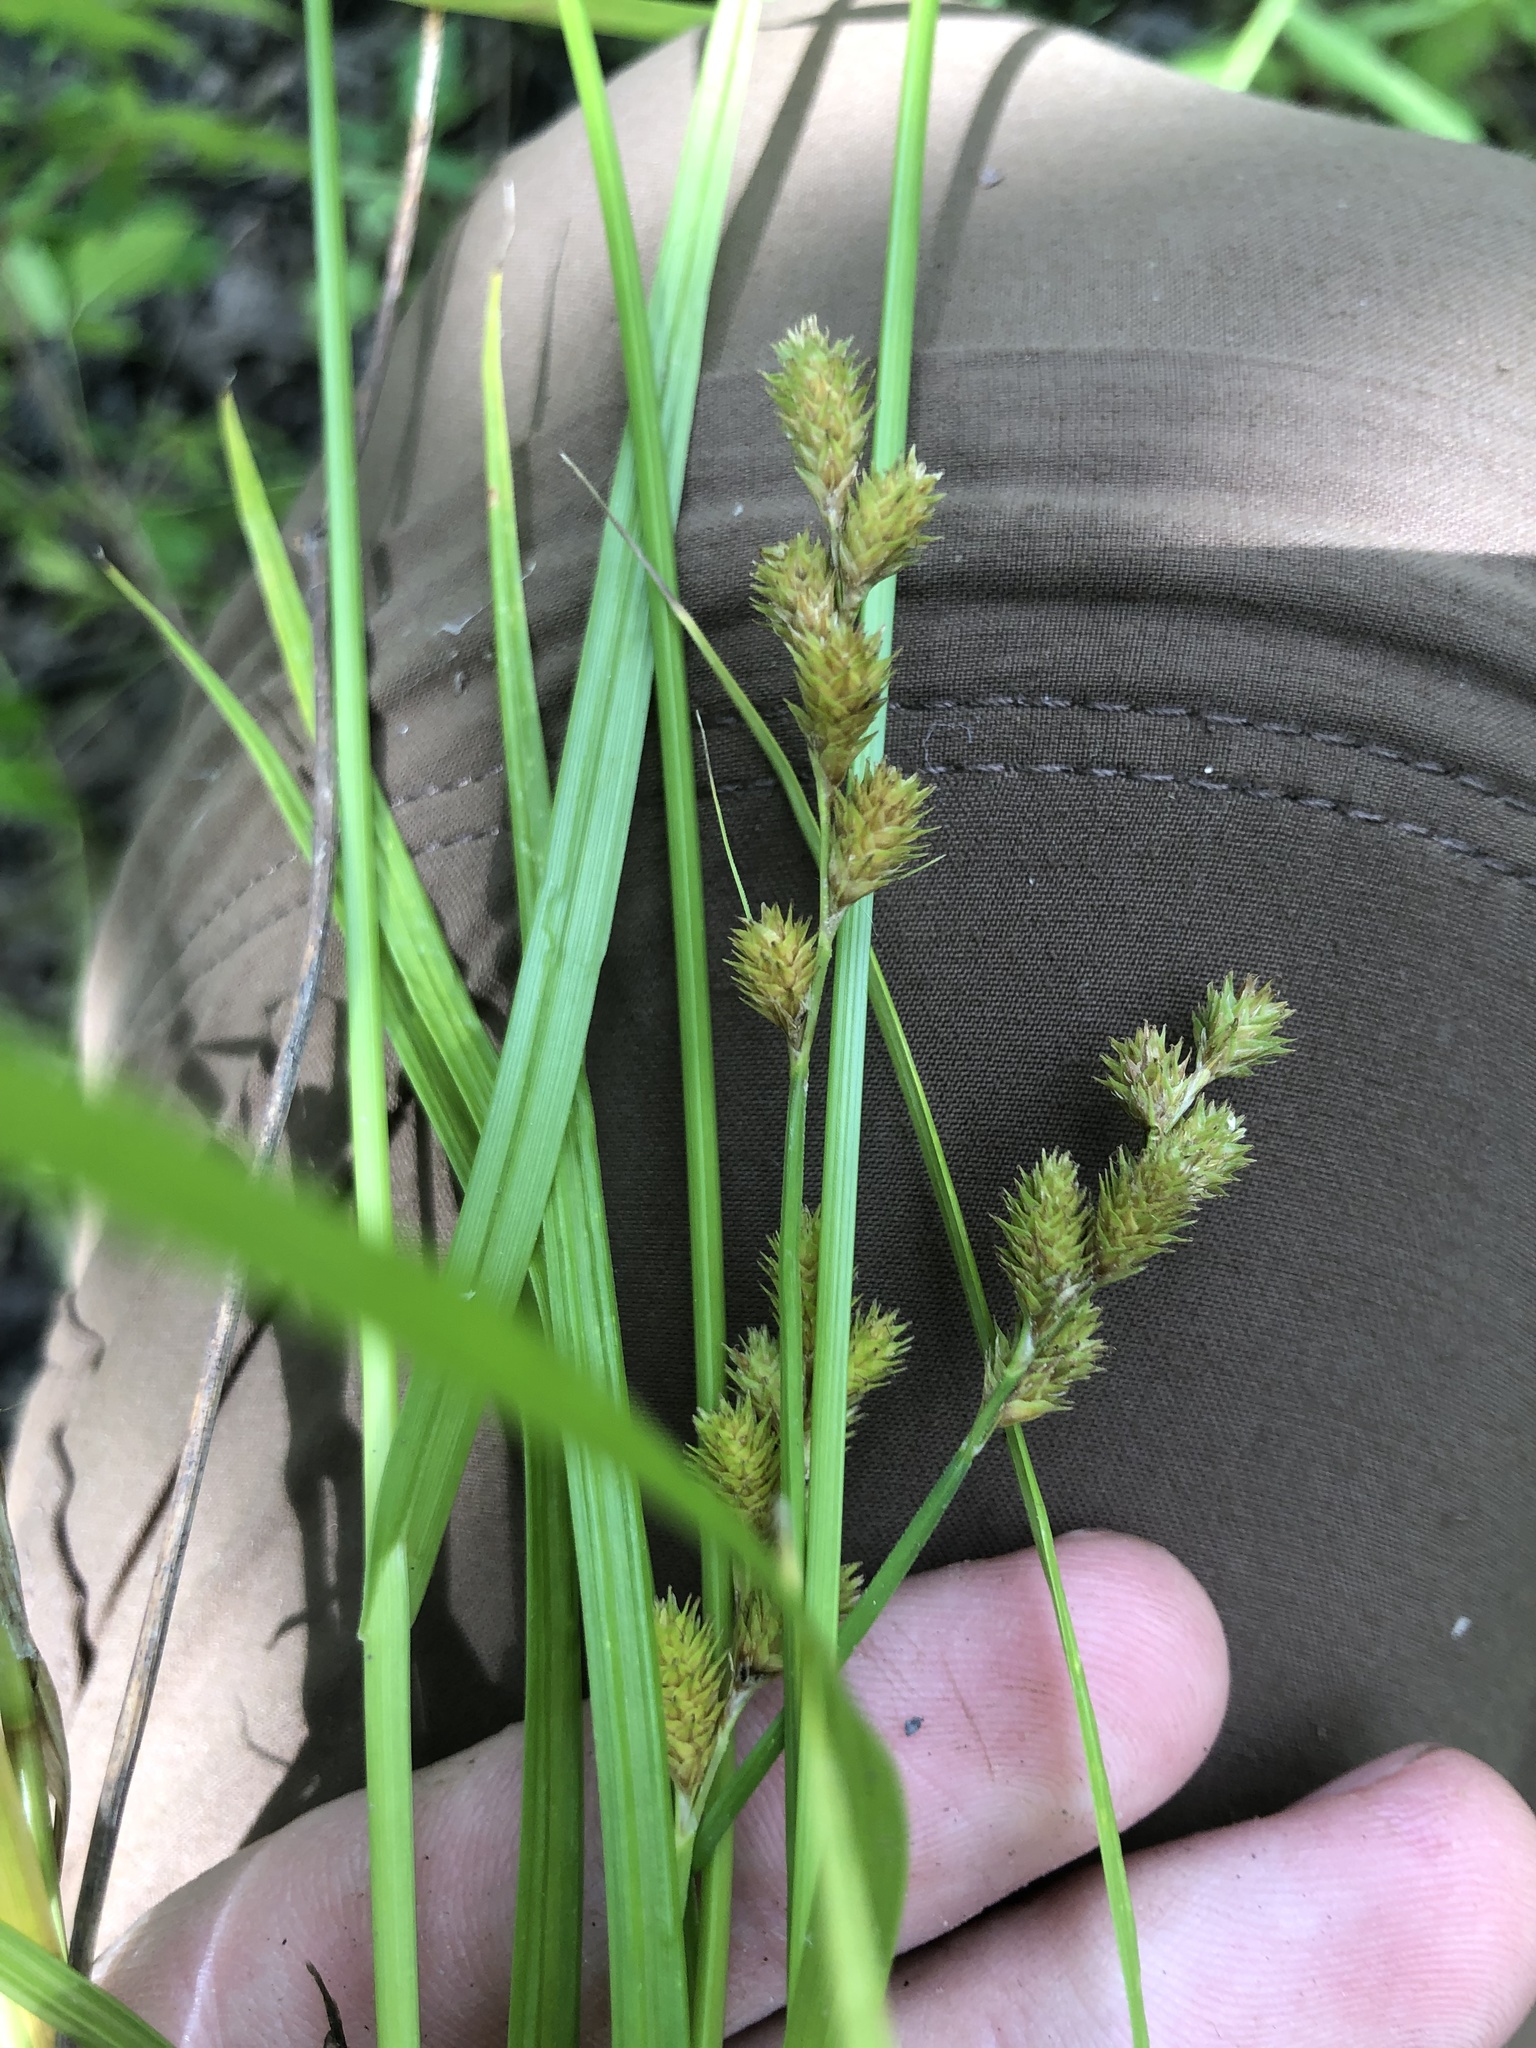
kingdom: Plantae
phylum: Tracheophyta
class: Liliopsida
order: Poales
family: Cyperaceae
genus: Carex
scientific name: Carex tribuloides
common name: Blunt broom sedge
